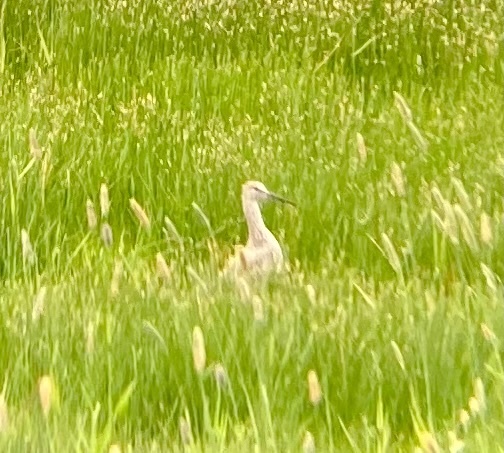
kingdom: Animalia
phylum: Chordata
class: Aves
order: Charadriiformes
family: Scolopacidae
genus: Tringa
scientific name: Tringa semipalmata
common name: Willet
